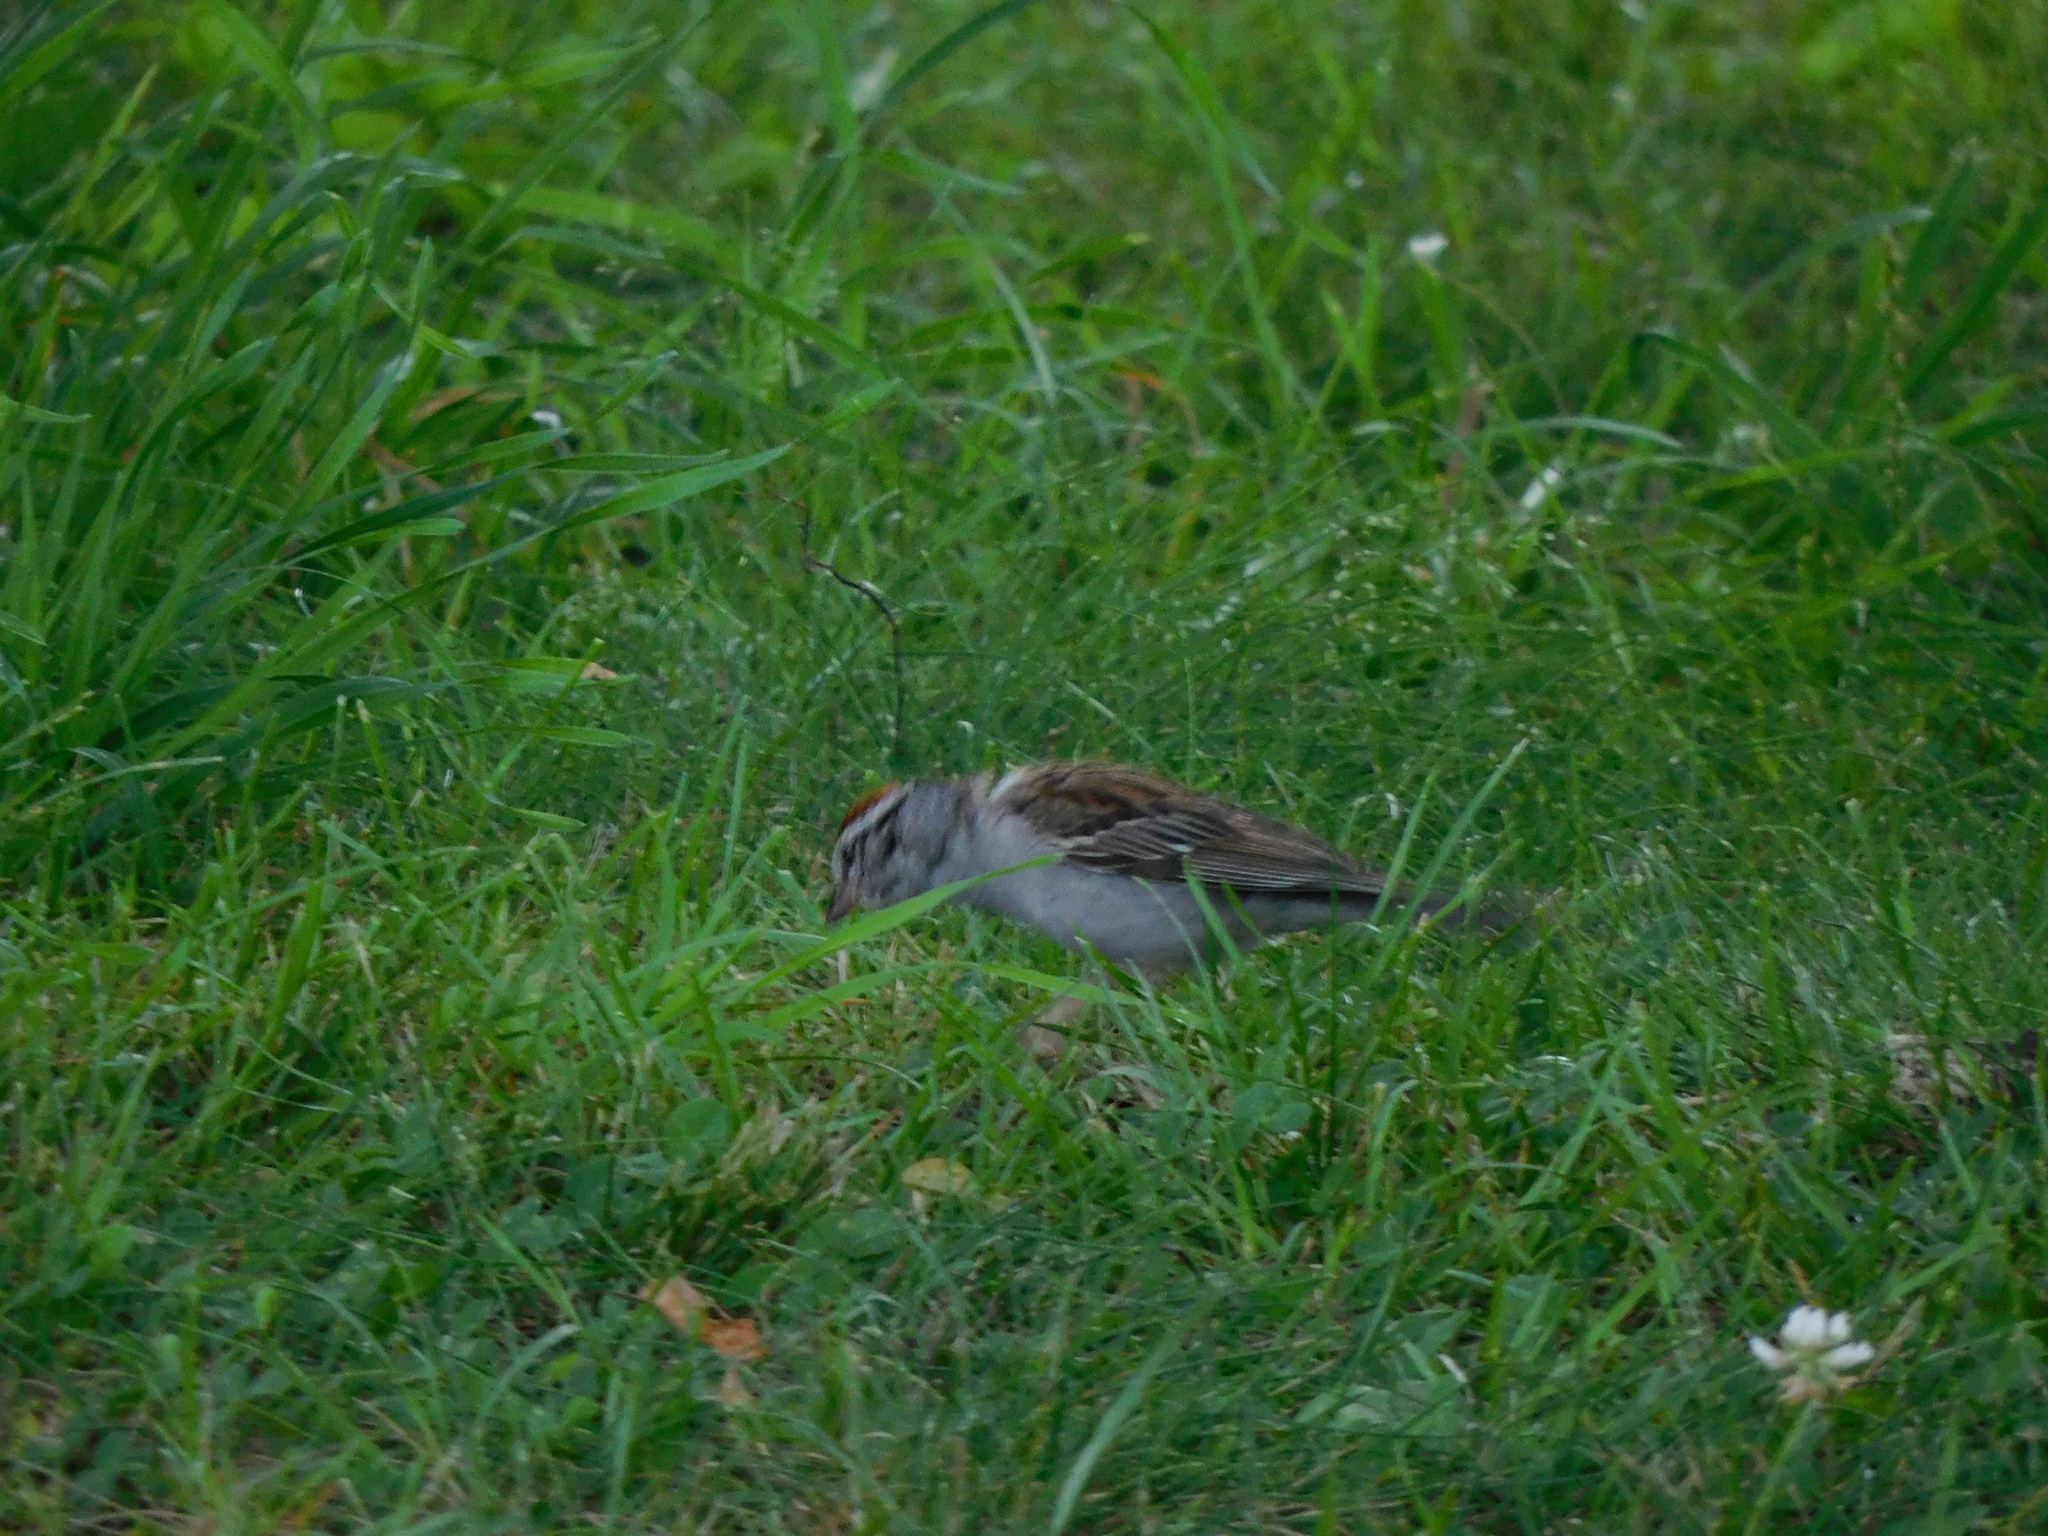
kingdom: Animalia
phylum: Chordata
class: Aves
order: Passeriformes
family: Passerellidae
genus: Spizella
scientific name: Spizella passerina
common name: Chipping sparrow
